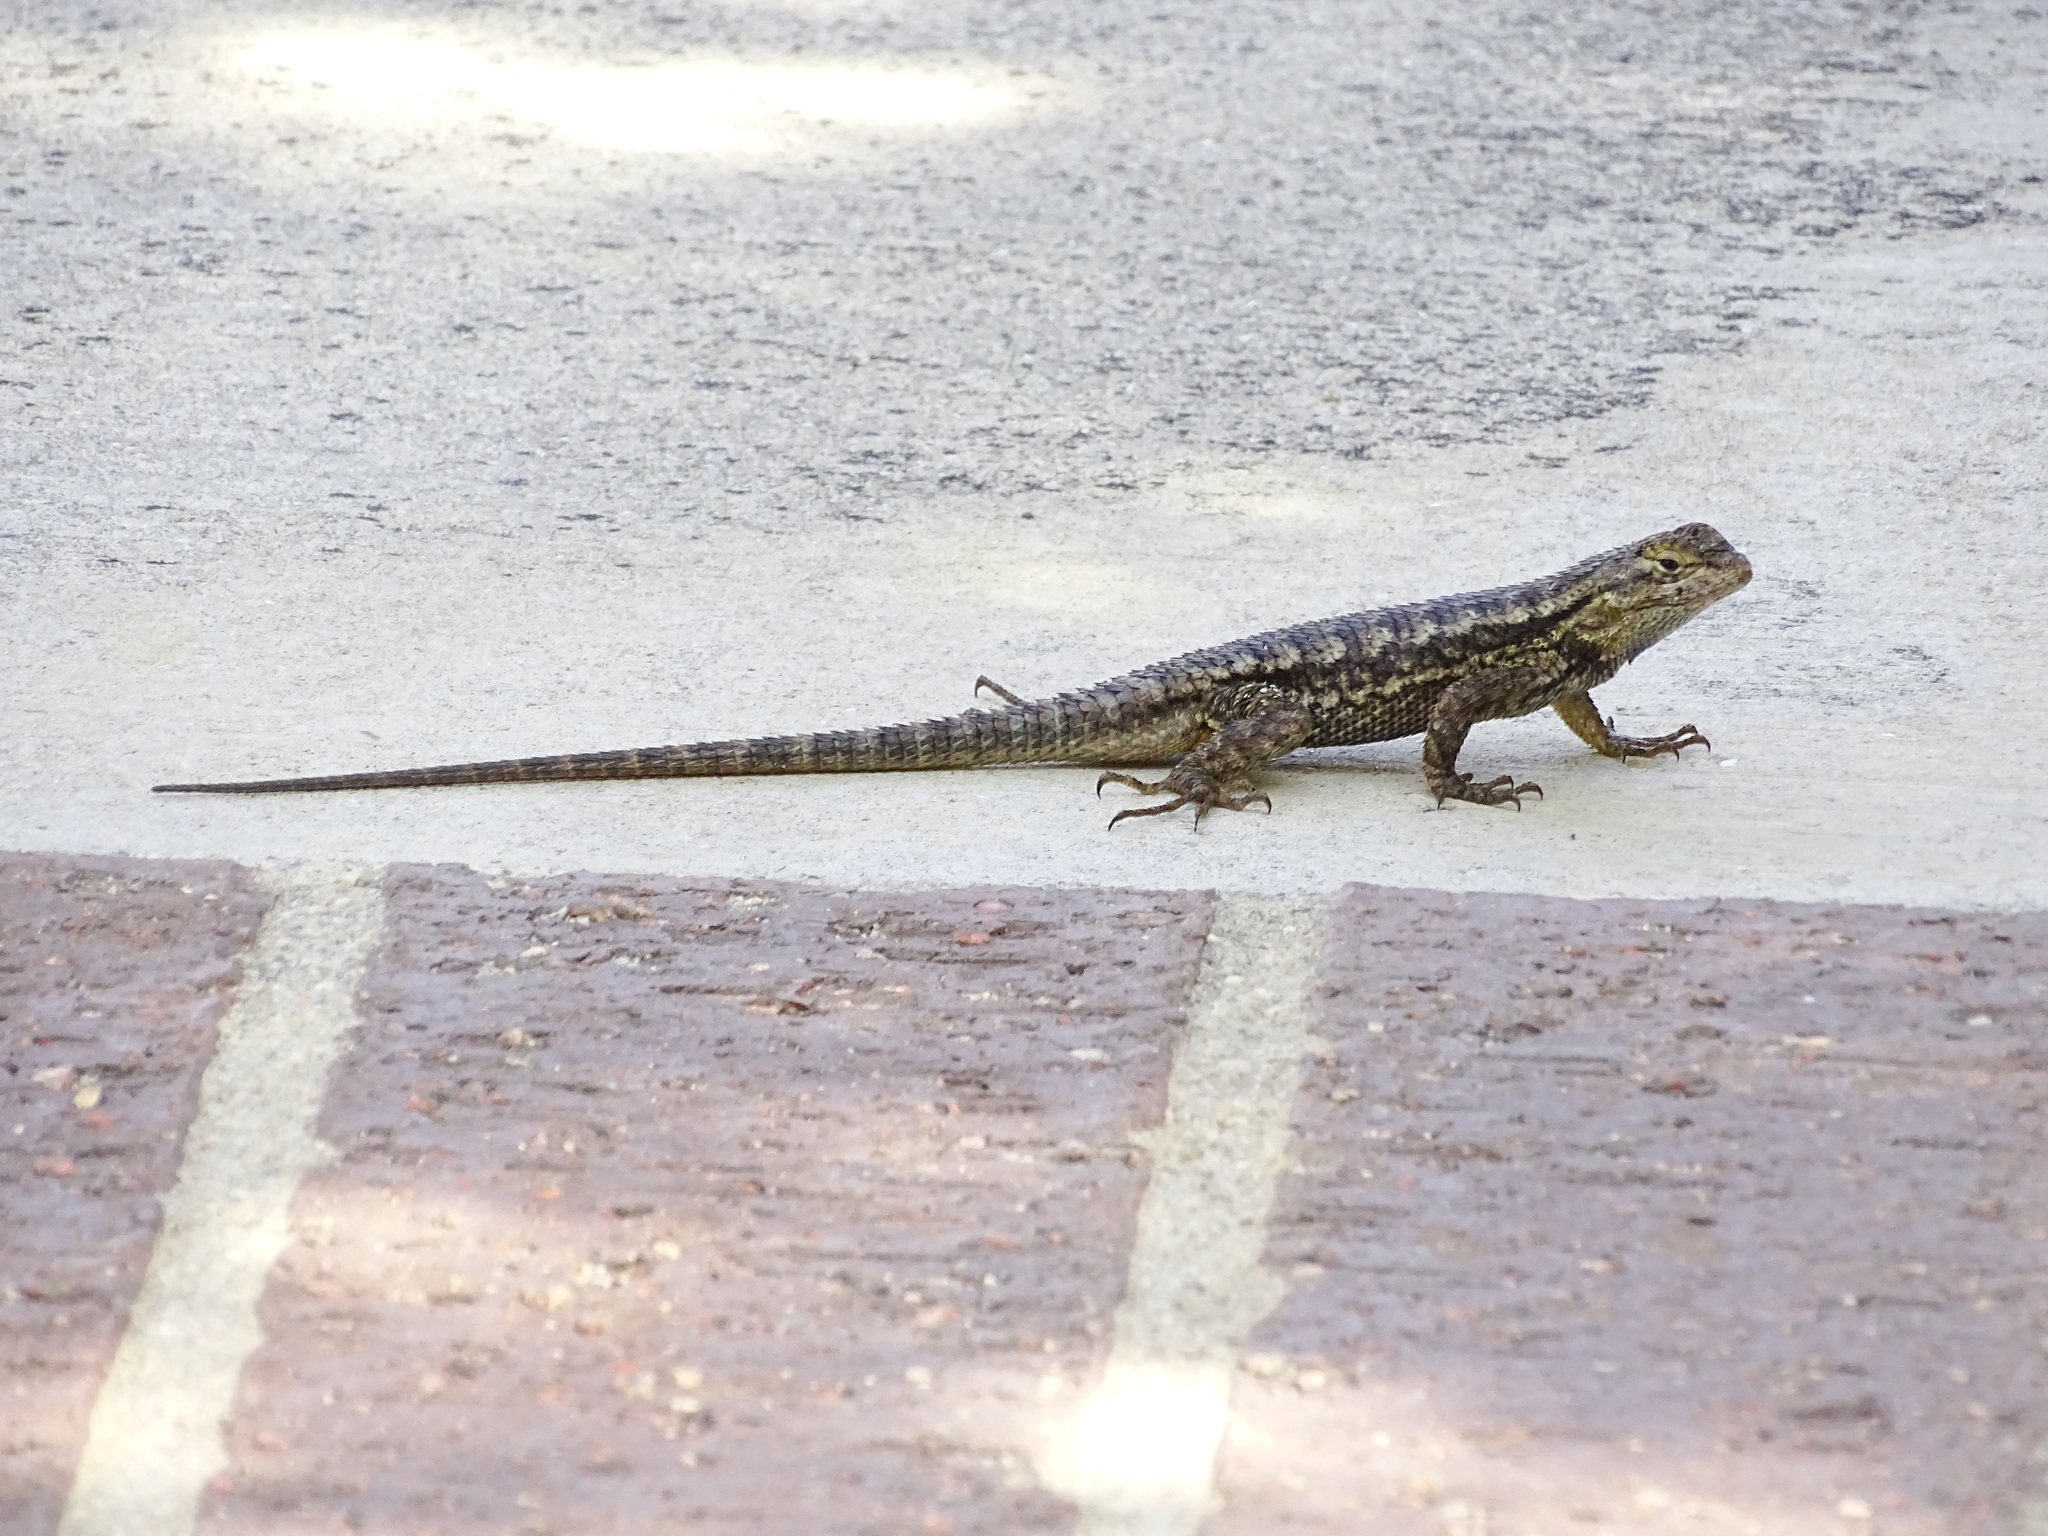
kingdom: Animalia
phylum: Chordata
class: Squamata
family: Phrynosomatidae
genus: Sceloporus
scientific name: Sceloporus occidentalis
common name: Western fence lizard
